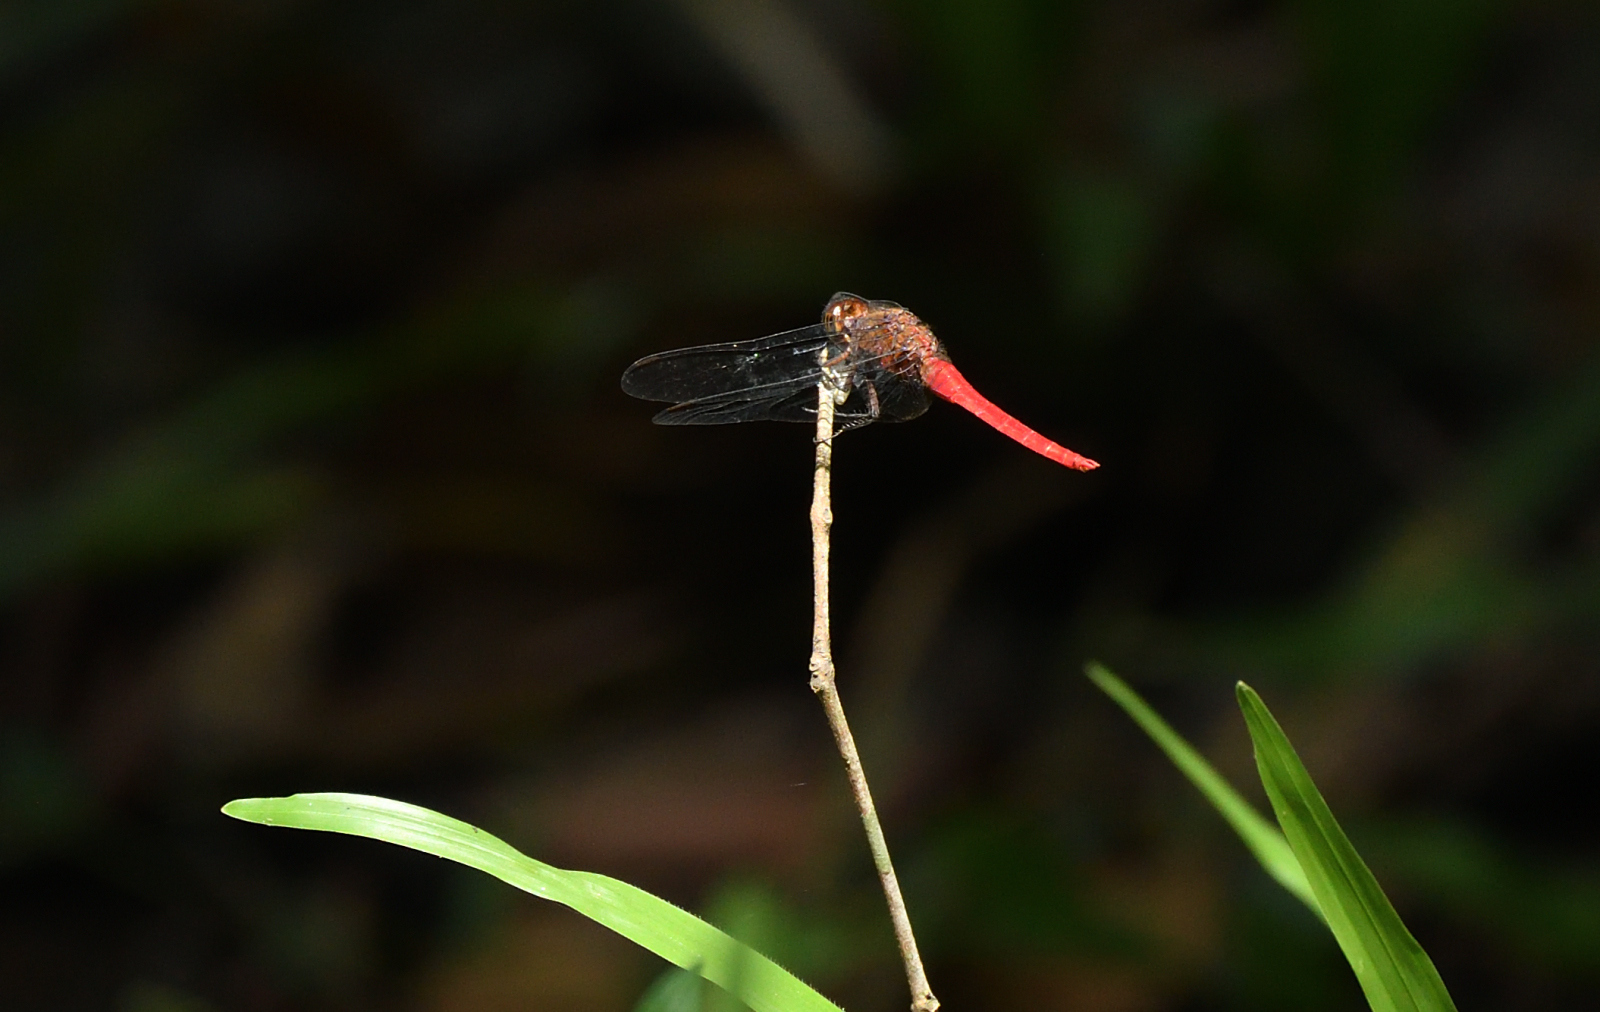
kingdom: Animalia
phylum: Arthropoda
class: Insecta
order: Odonata
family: Libellulidae
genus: Orthetrum
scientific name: Orthetrum chrysis
